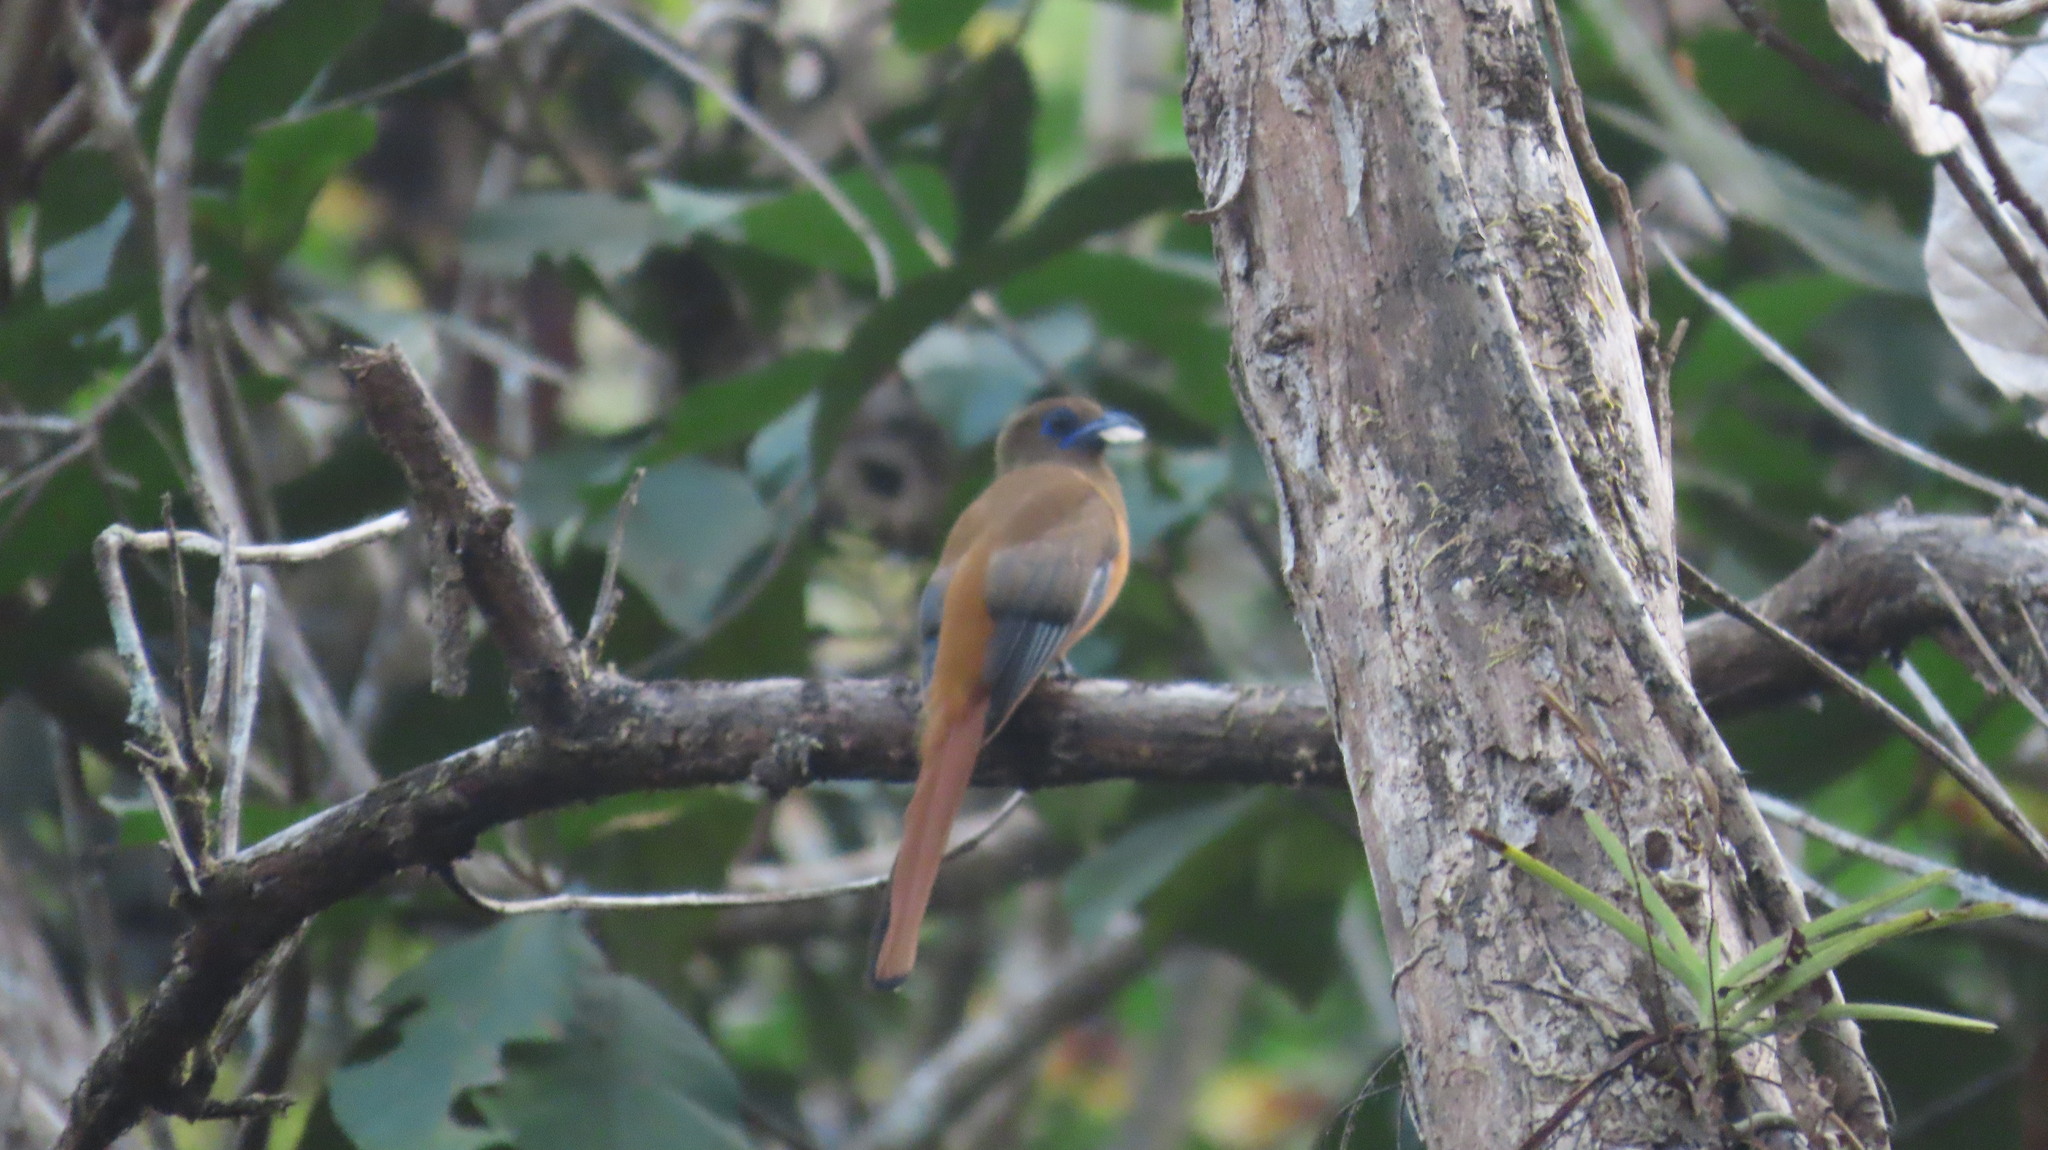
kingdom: Animalia
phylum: Chordata
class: Aves
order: Trogoniformes
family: Trogonidae
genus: Harpactes
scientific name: Harpactes fasciatus
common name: Malabar trogon
